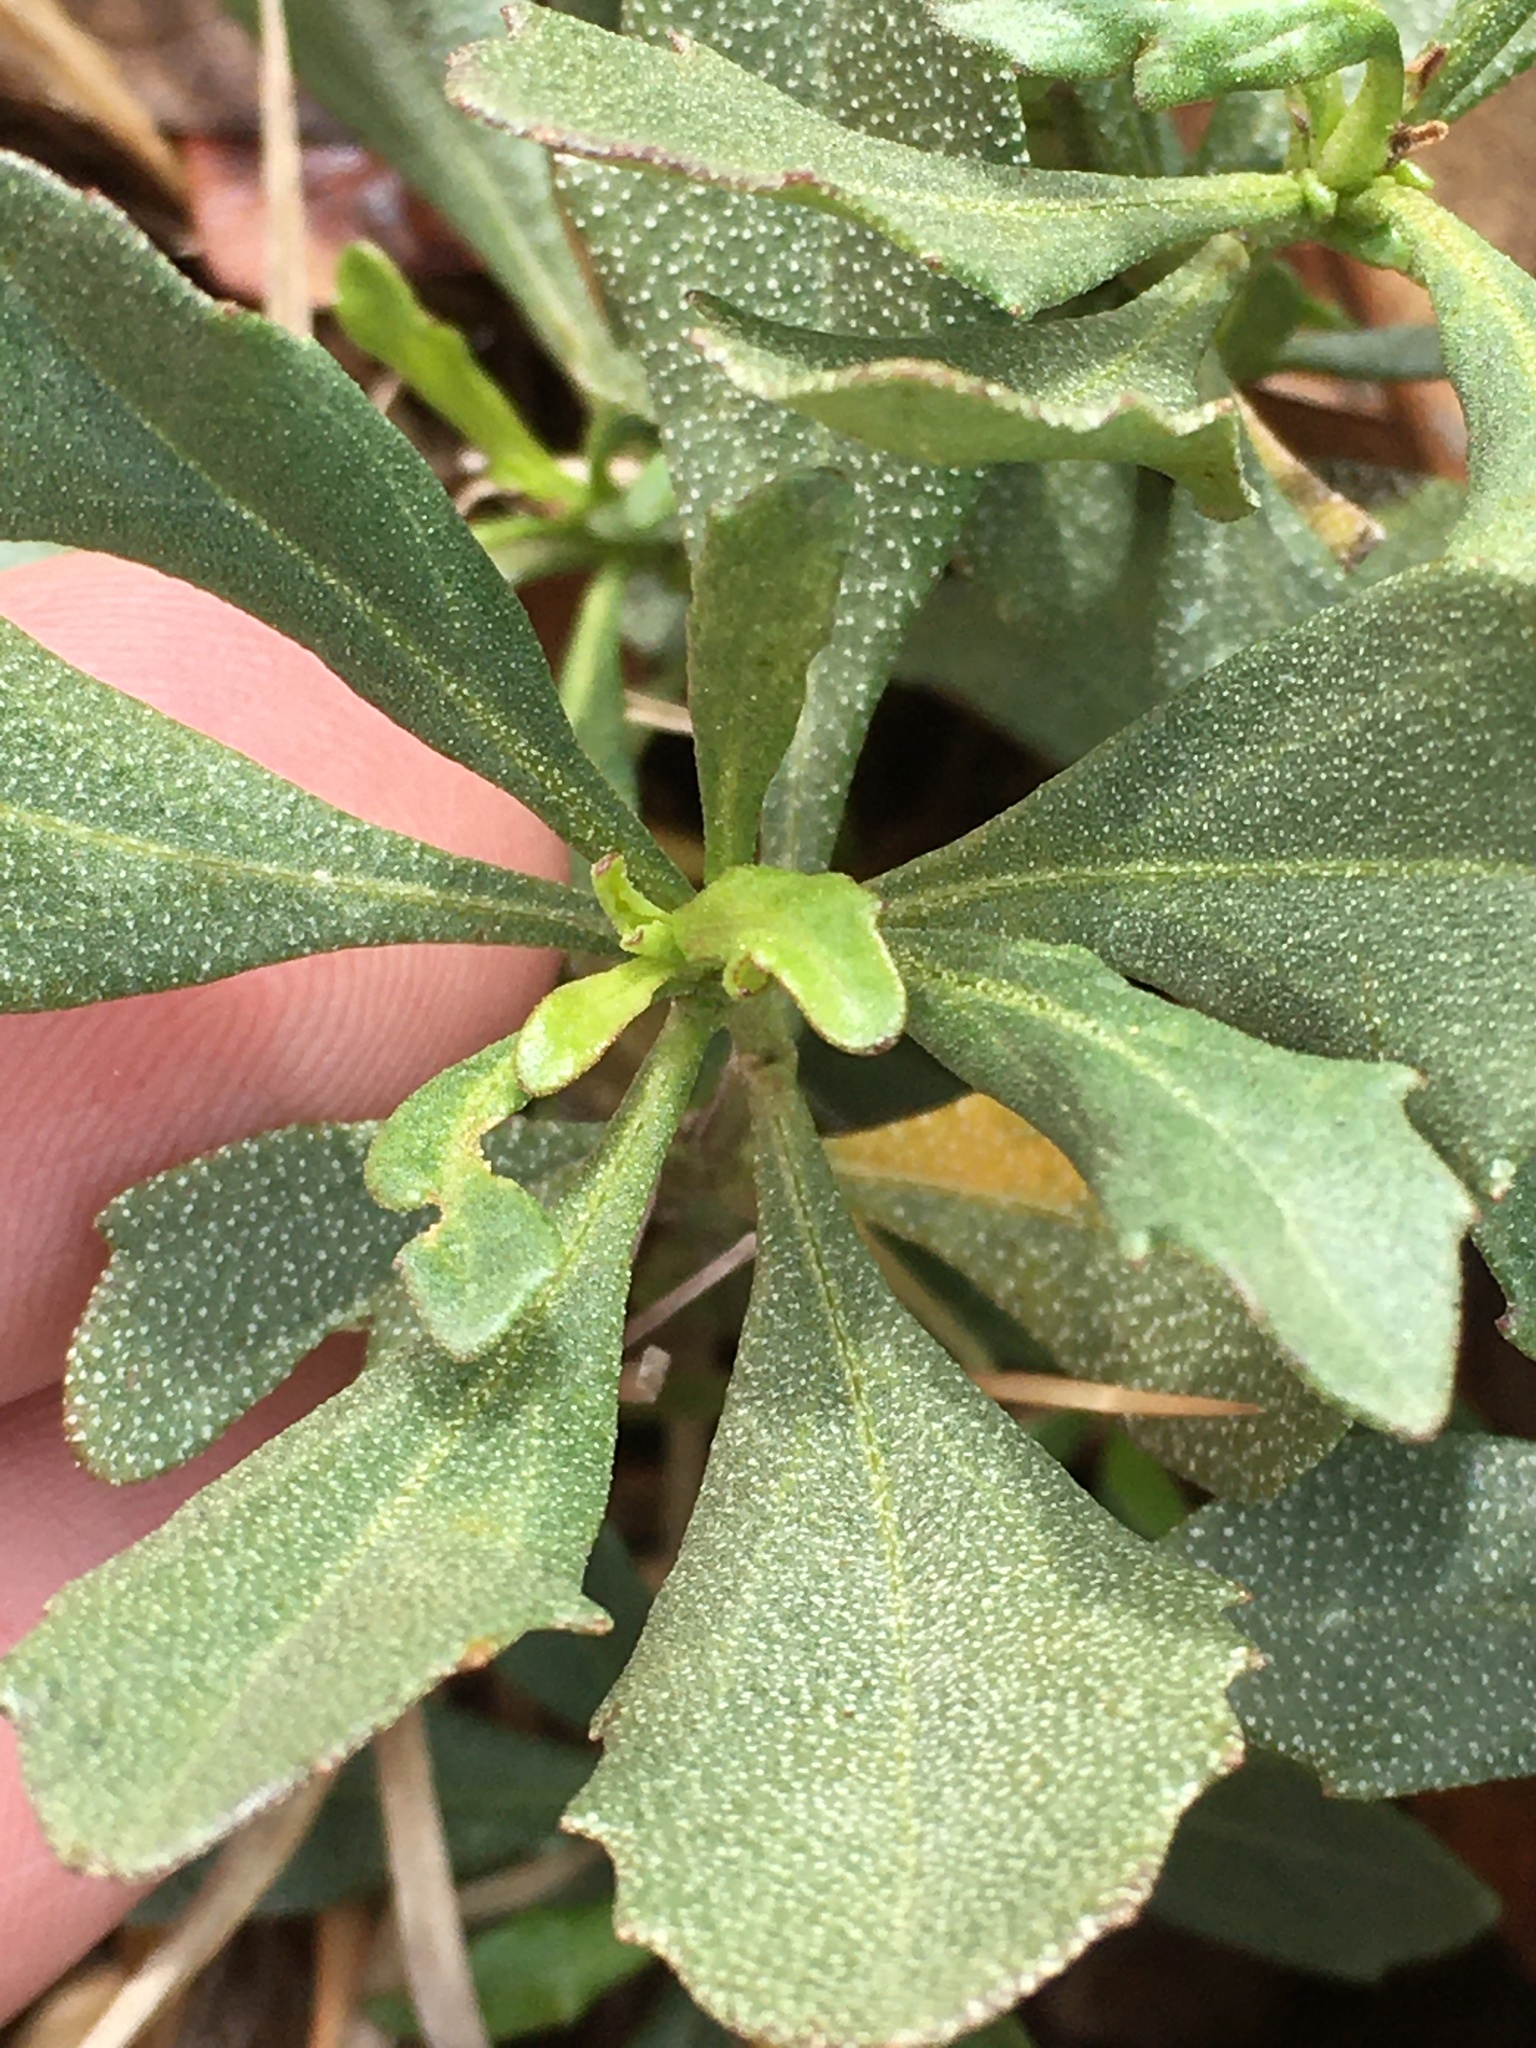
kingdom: Plantae
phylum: Tracheophyta
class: Magnoliopsida
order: Asterales
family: Asteraceae
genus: Baccharis
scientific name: Baccharis halimifolia
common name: Eastern baccharis
